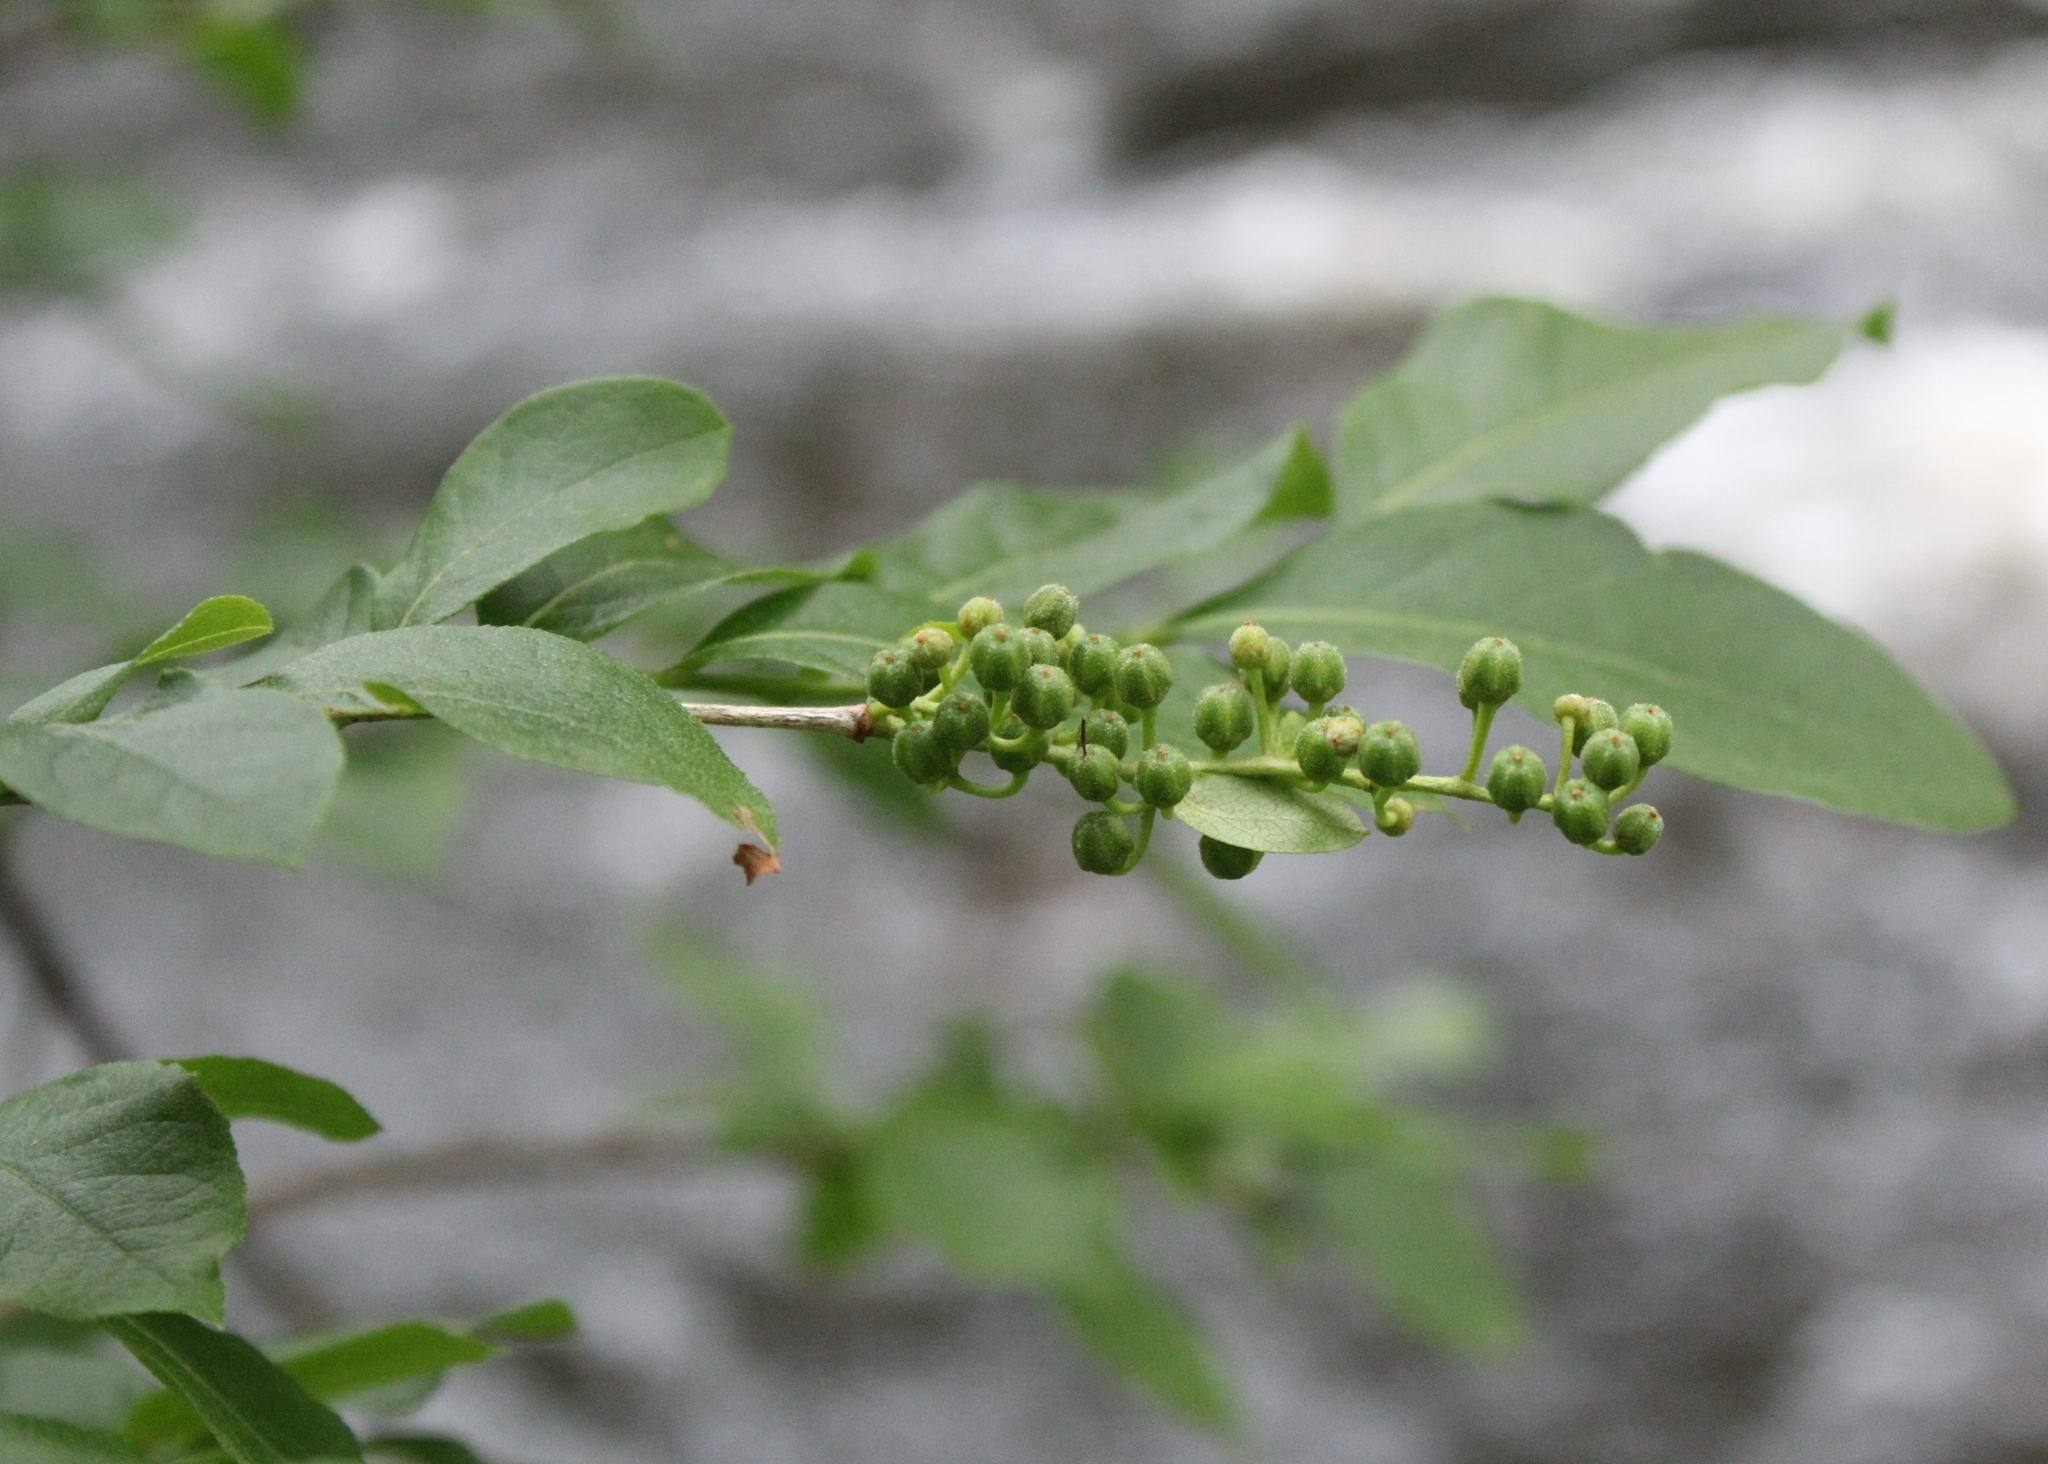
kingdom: Plantae
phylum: Tracheophyta
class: Magnoliopsida
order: Ericales
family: Ericaceae
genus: Lyonia
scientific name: Lyonia ligustrina
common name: Maleberry
